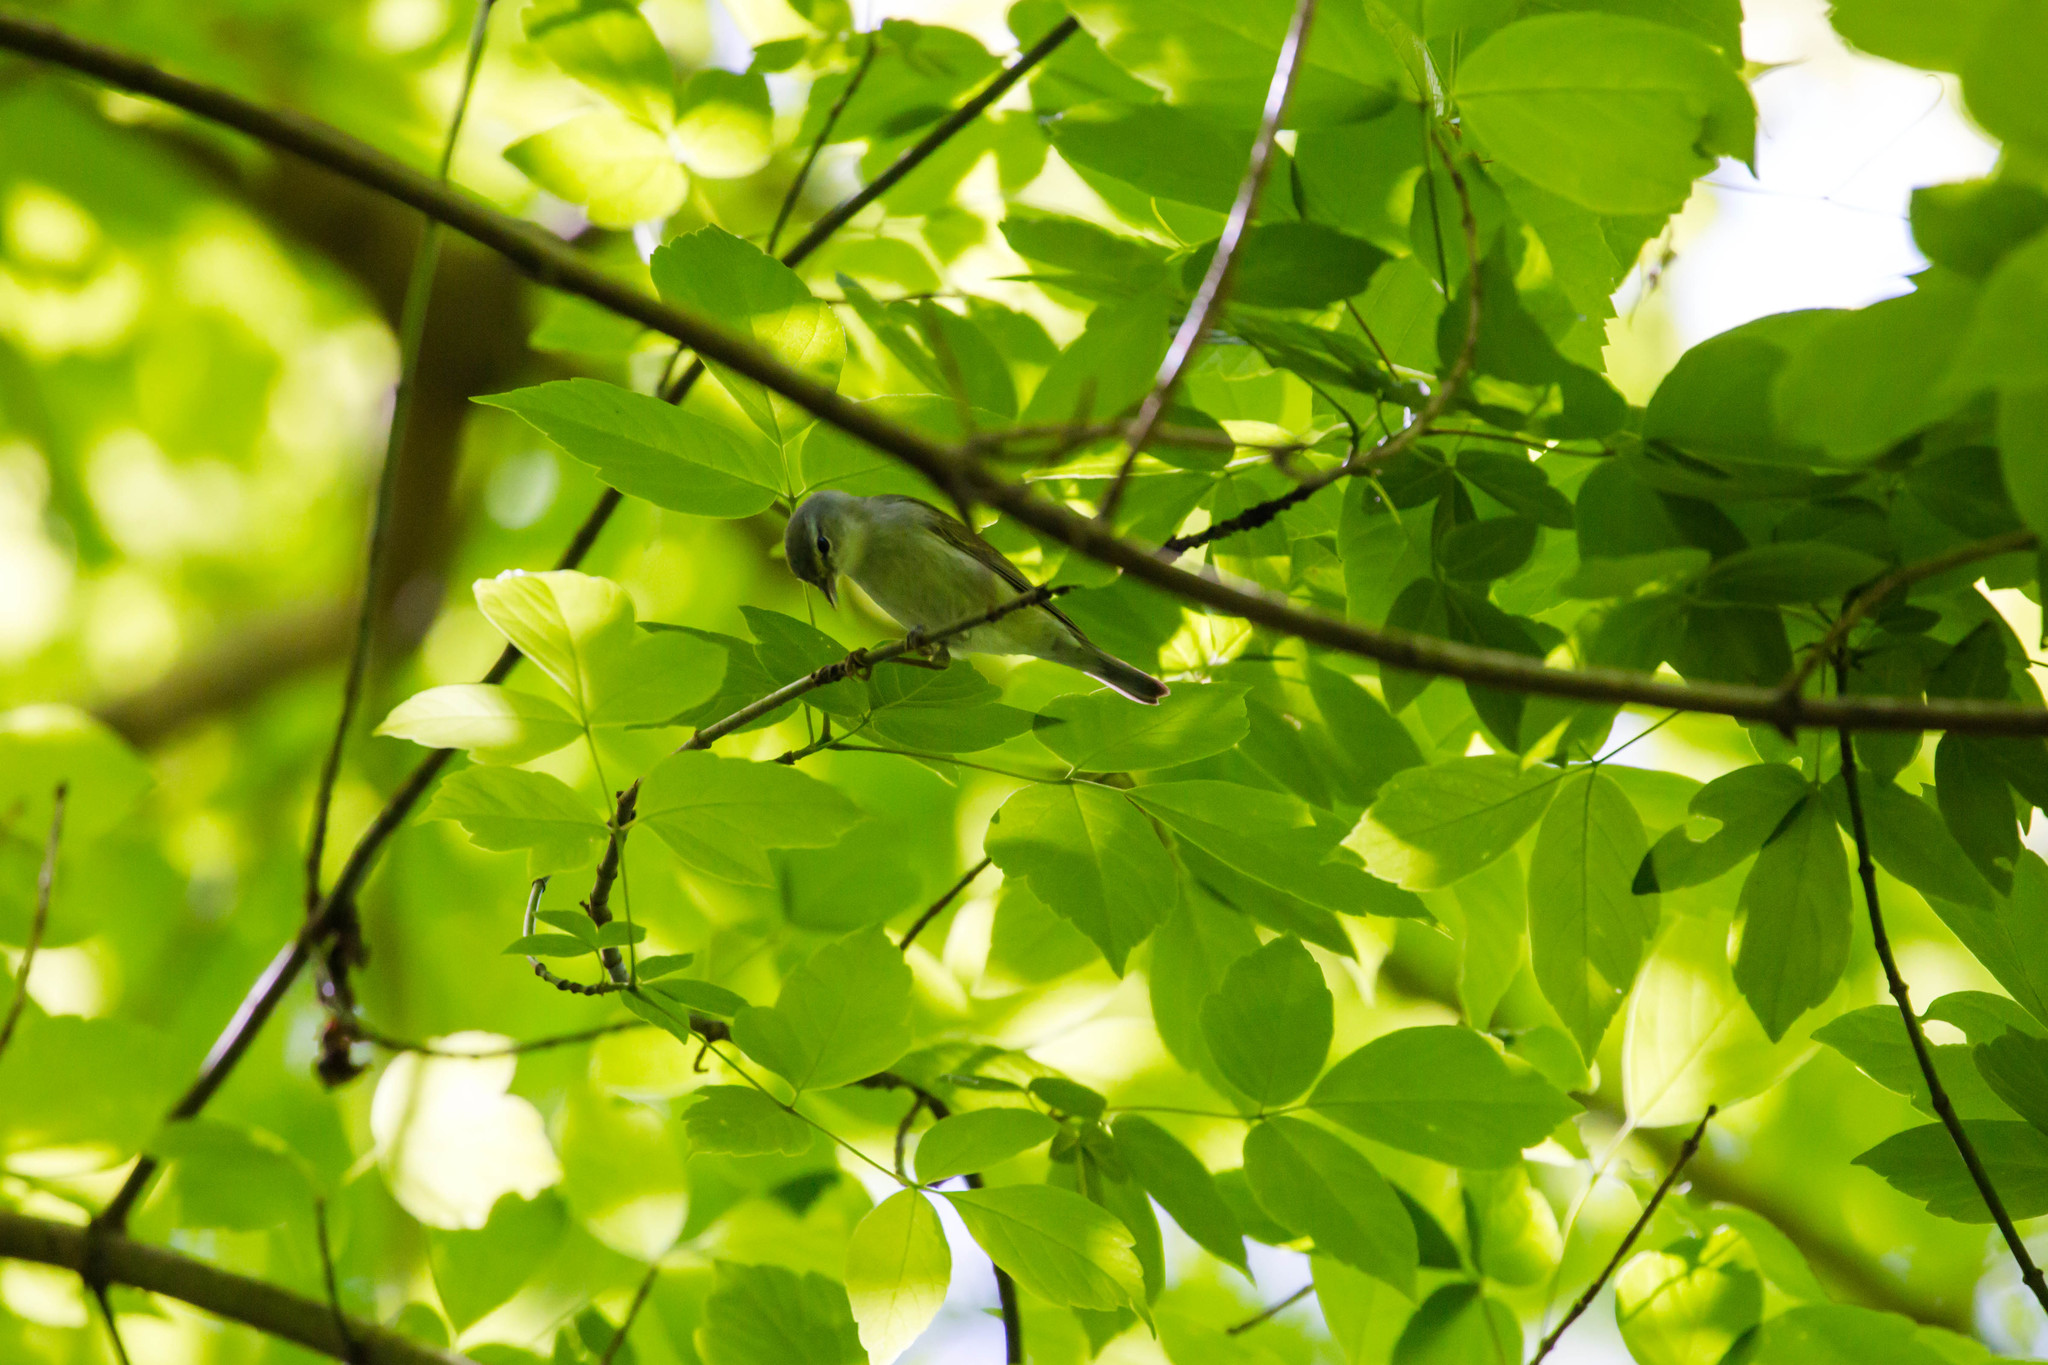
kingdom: Animalia
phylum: Chordata
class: Aves
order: Passeriformes
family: Parulidae
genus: Leiothlypis
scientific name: Leiothlypis peregrina
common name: Tennessee warbler
